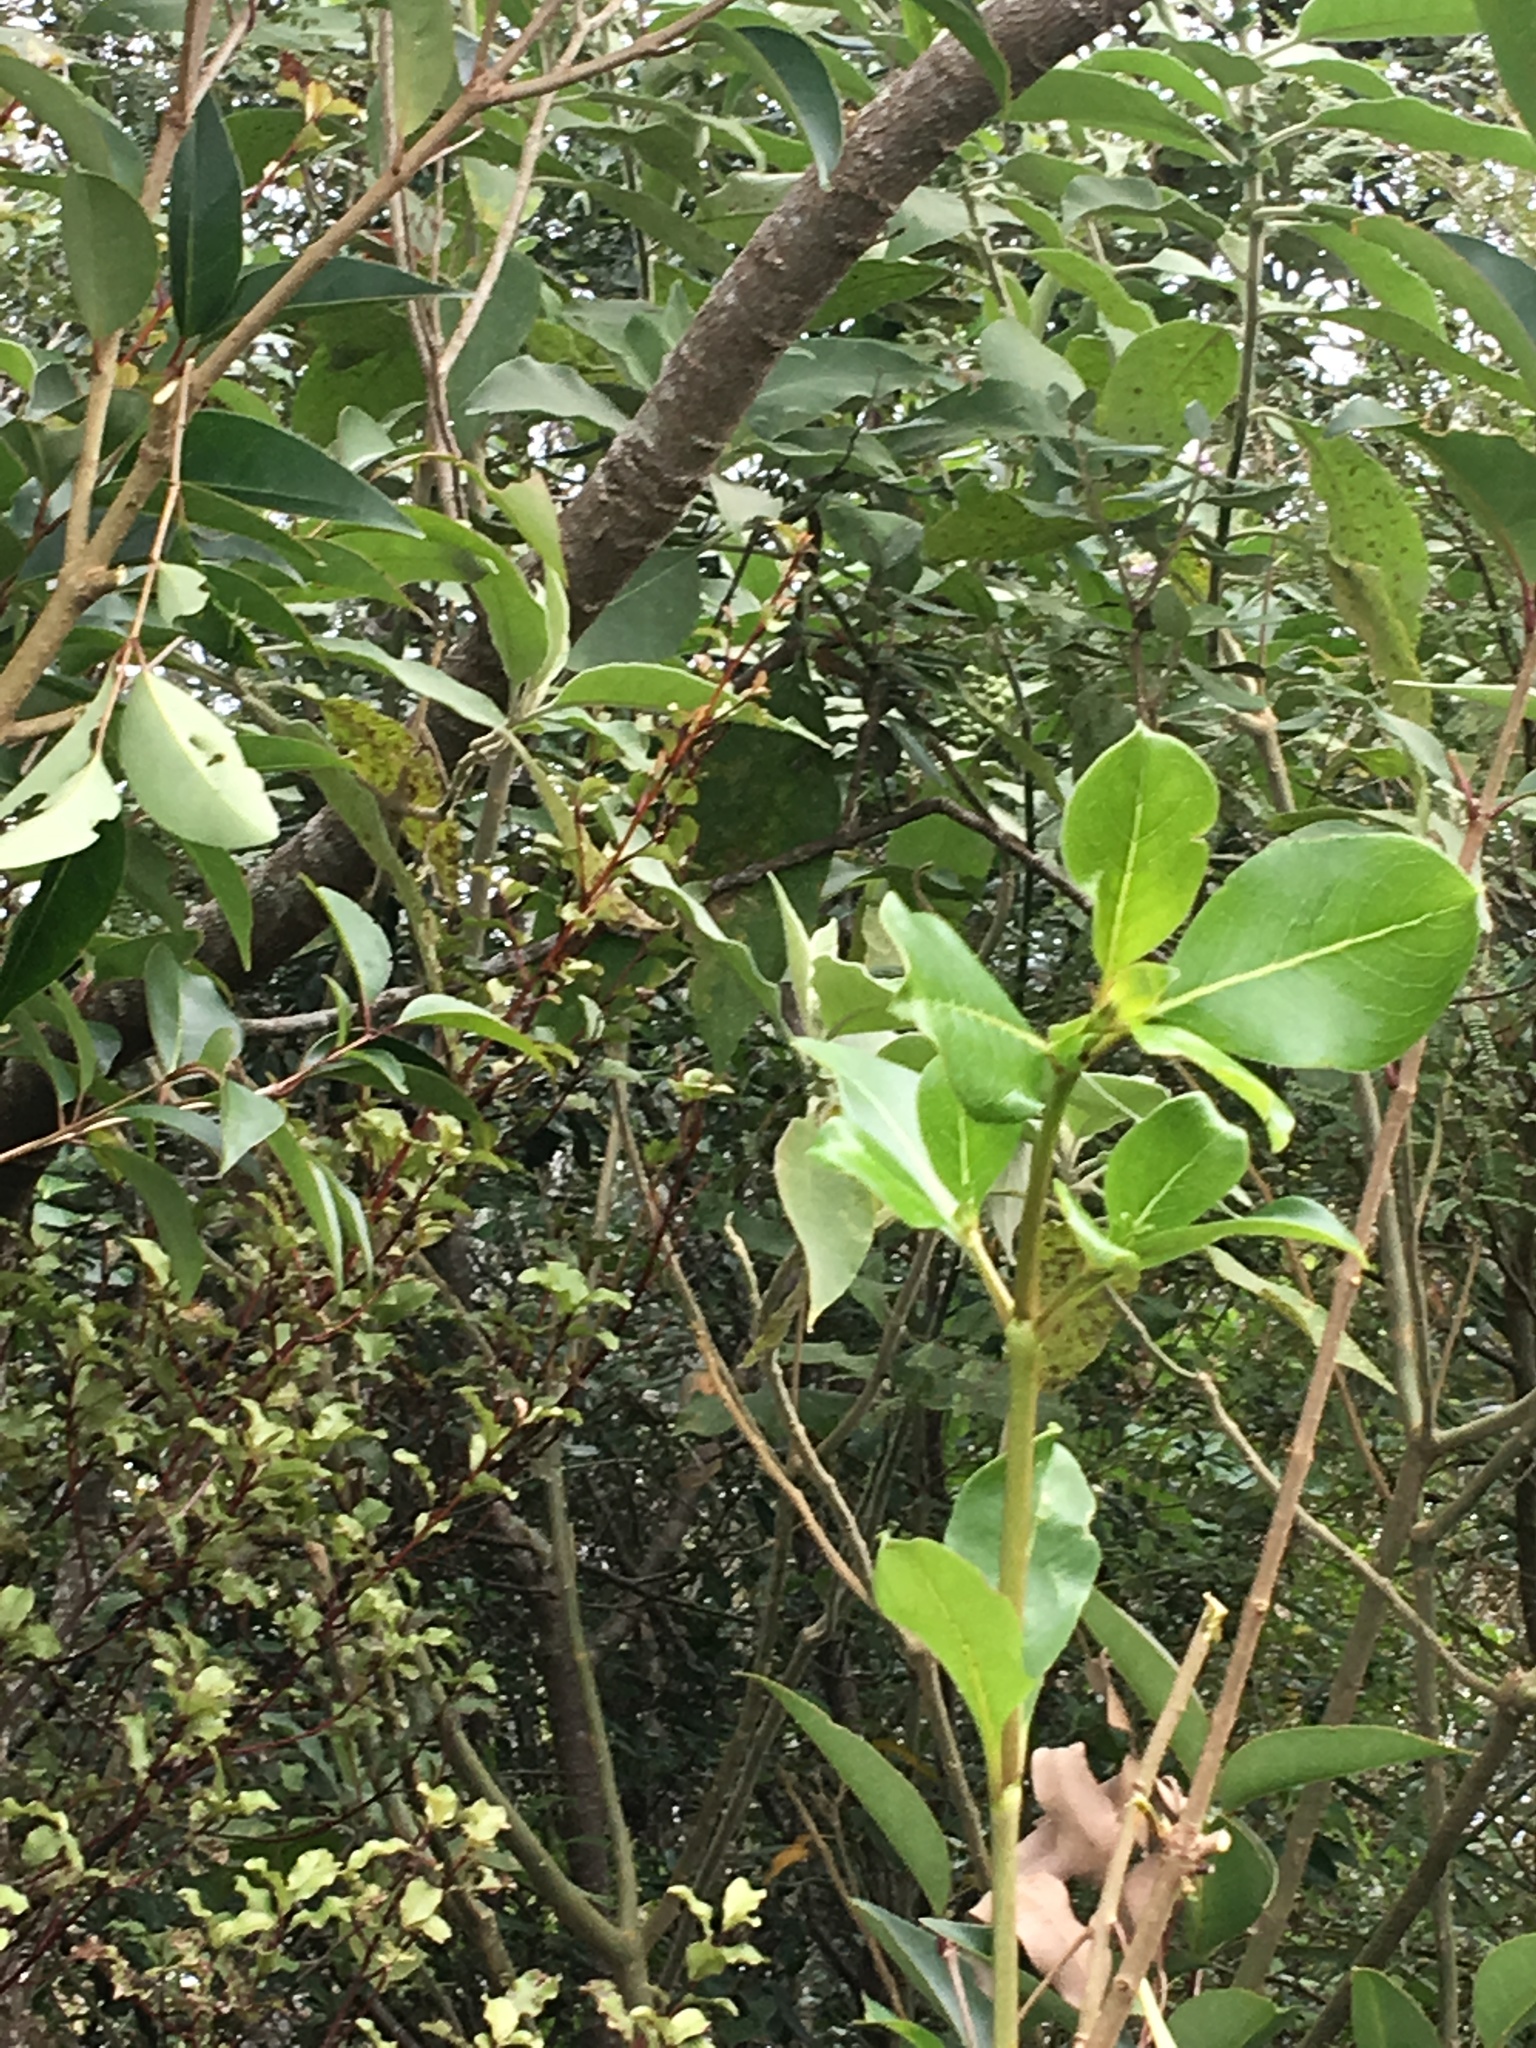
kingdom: Plantae
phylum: Tracheophyta
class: Magnoliopsida
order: Gentianales
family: Rubiaceae
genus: Coprosma
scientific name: Coprosma robusta
